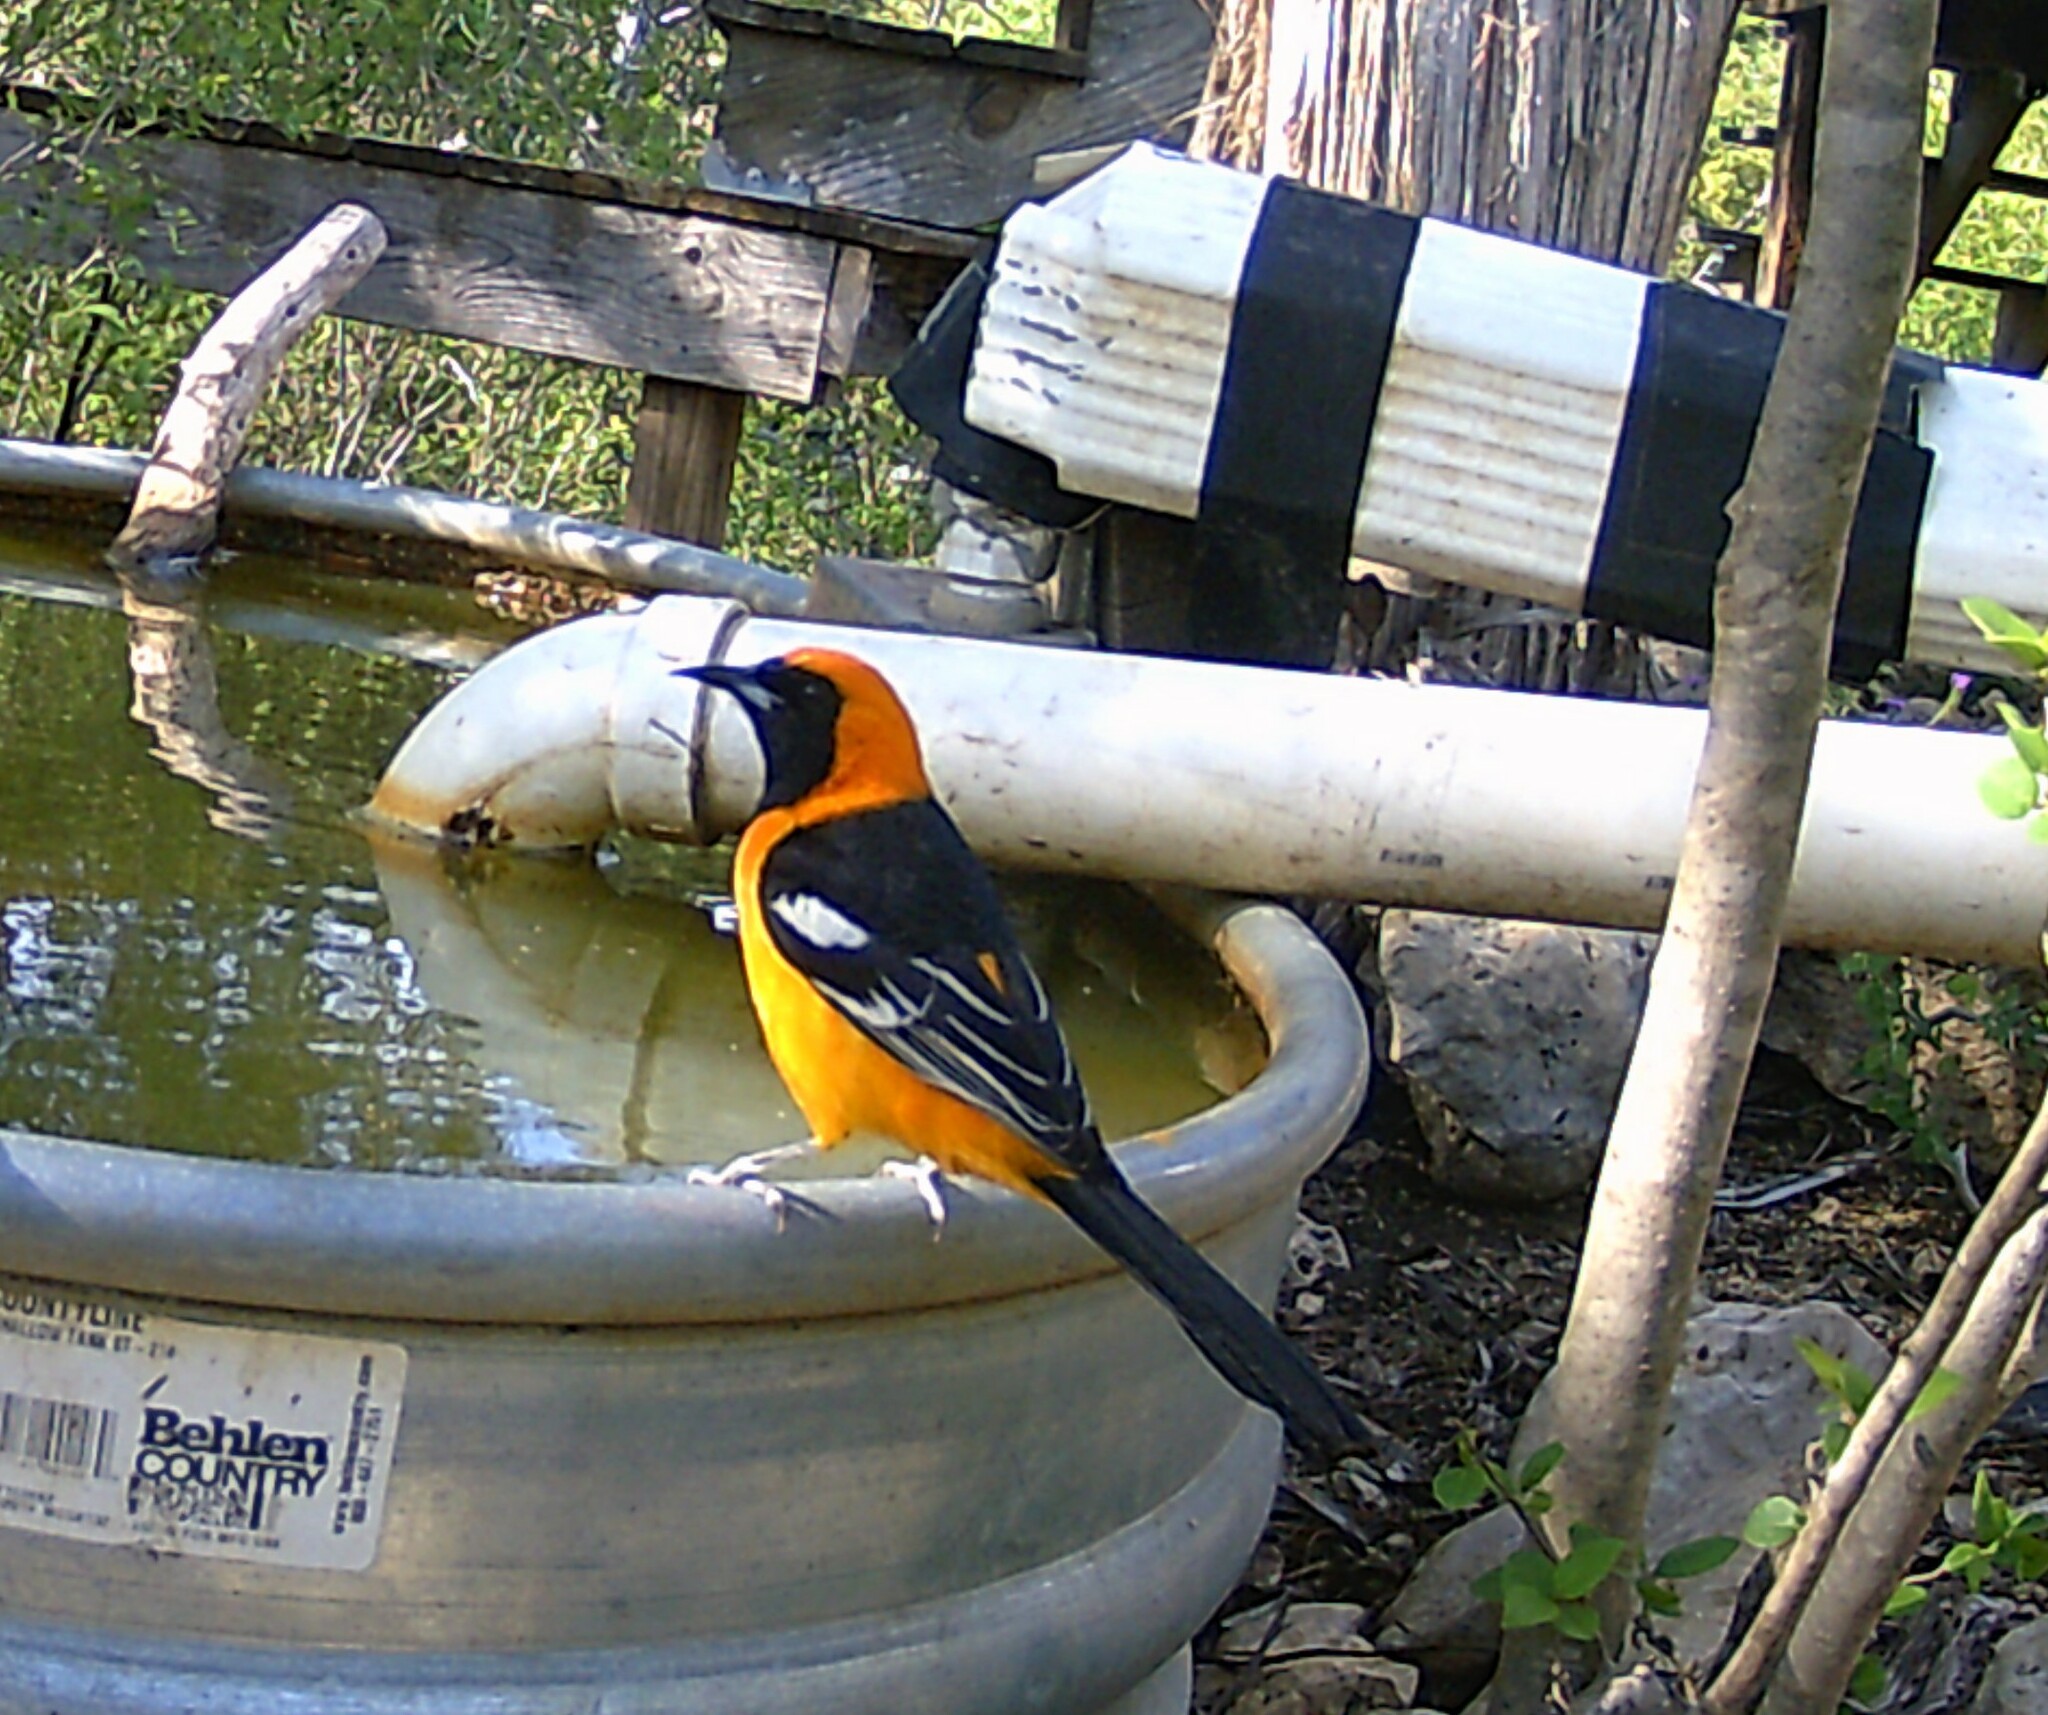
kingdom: Animalia
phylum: Chordata
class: Aves
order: Passeriformes
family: Icteridae
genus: Icterus
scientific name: Icterus cucullatus
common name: Hooded oriole
